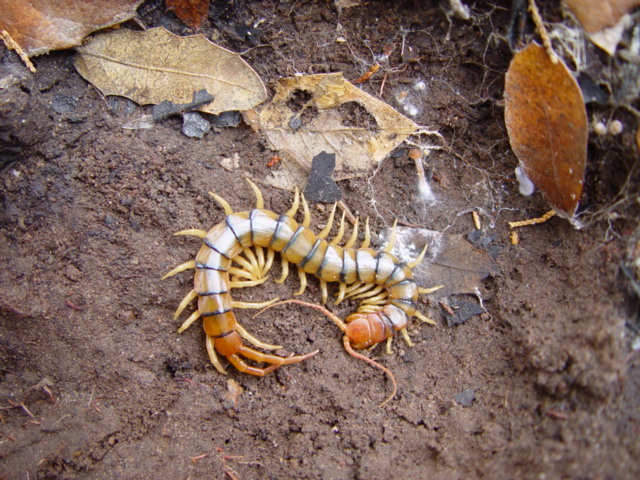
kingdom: Animalia
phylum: Arthropoda
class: Chilopoda
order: Scolopendromorpha
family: Scolopendridae
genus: Scolopendra
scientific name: Scolopendra polymorpha
